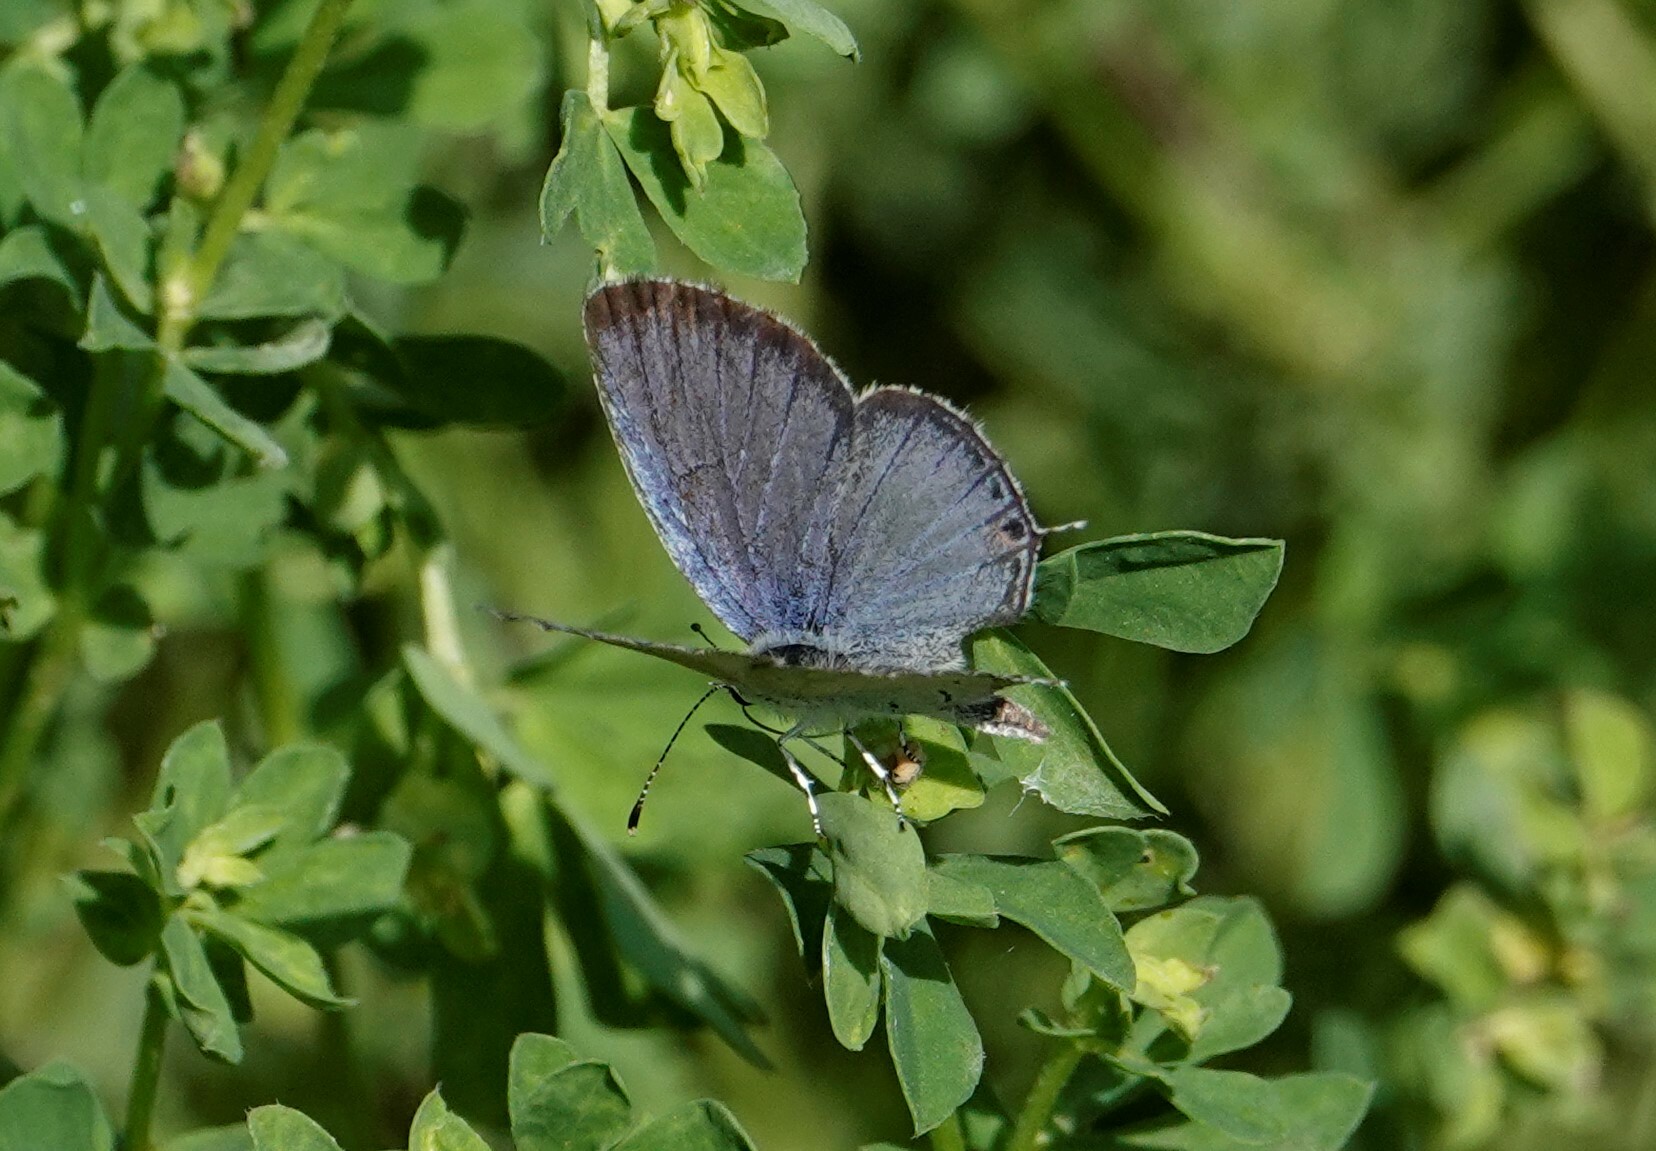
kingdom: Animalia
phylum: Arthropoda
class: Insecta
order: Lepidoptera
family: Lycaenidae
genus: Elkalyce
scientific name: Elkalyce comyntas
